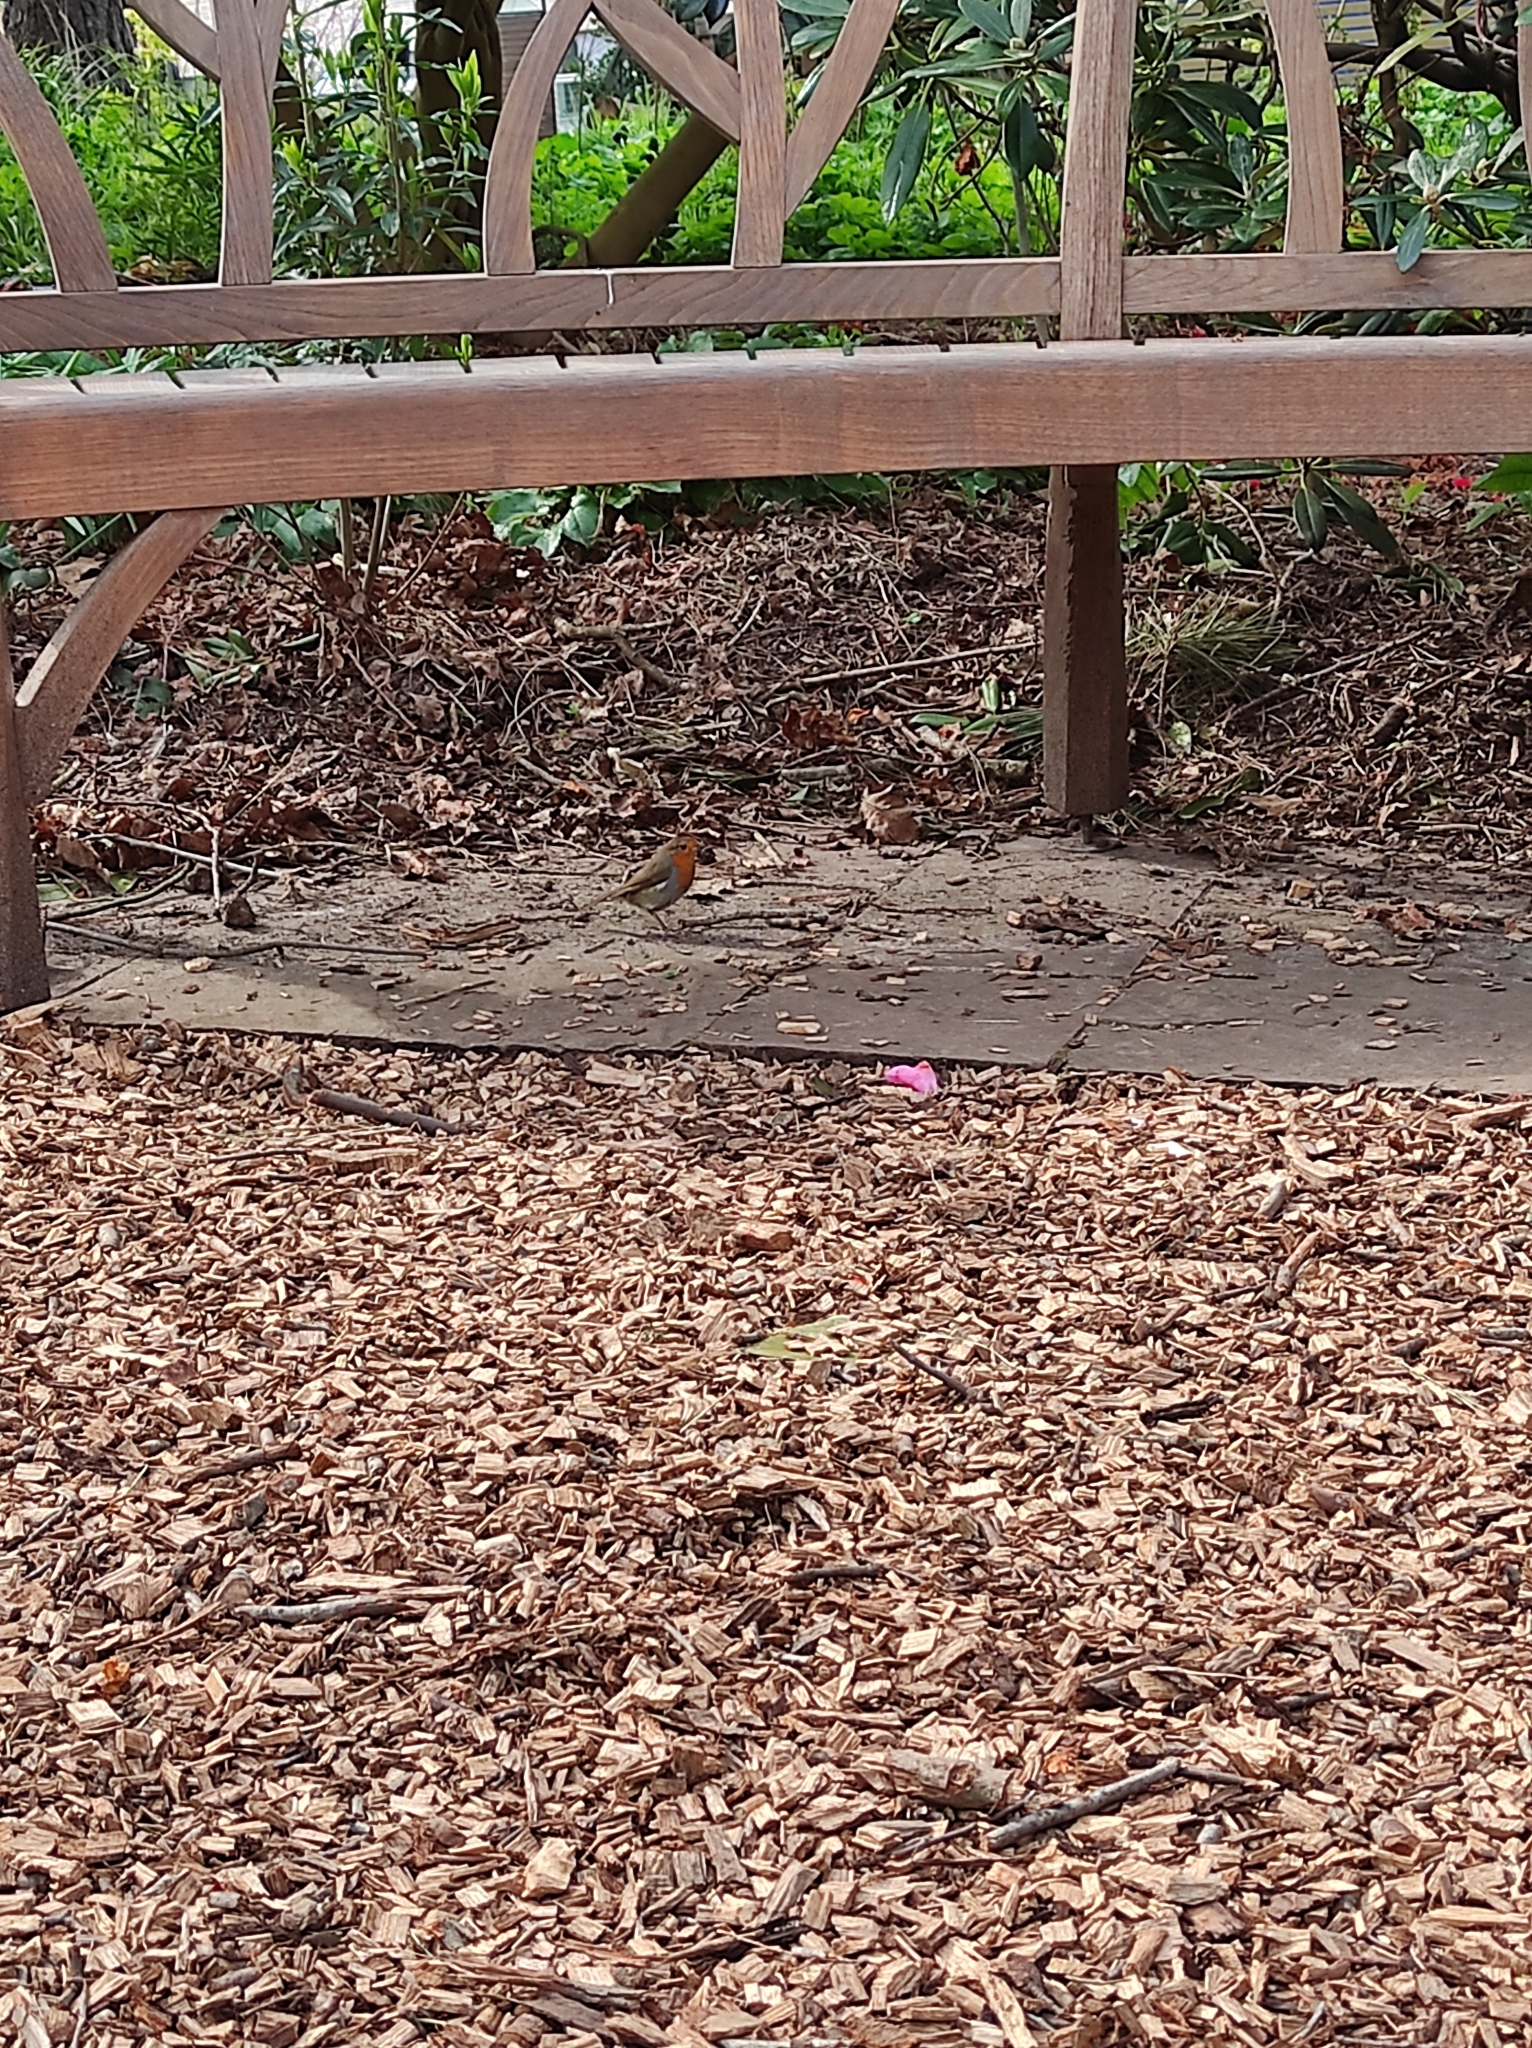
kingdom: Animalia
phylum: Chordata
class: Aves
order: Passeriformes
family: Muscicapidae
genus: Erithacus
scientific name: Erithacus rubecula
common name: European robin
